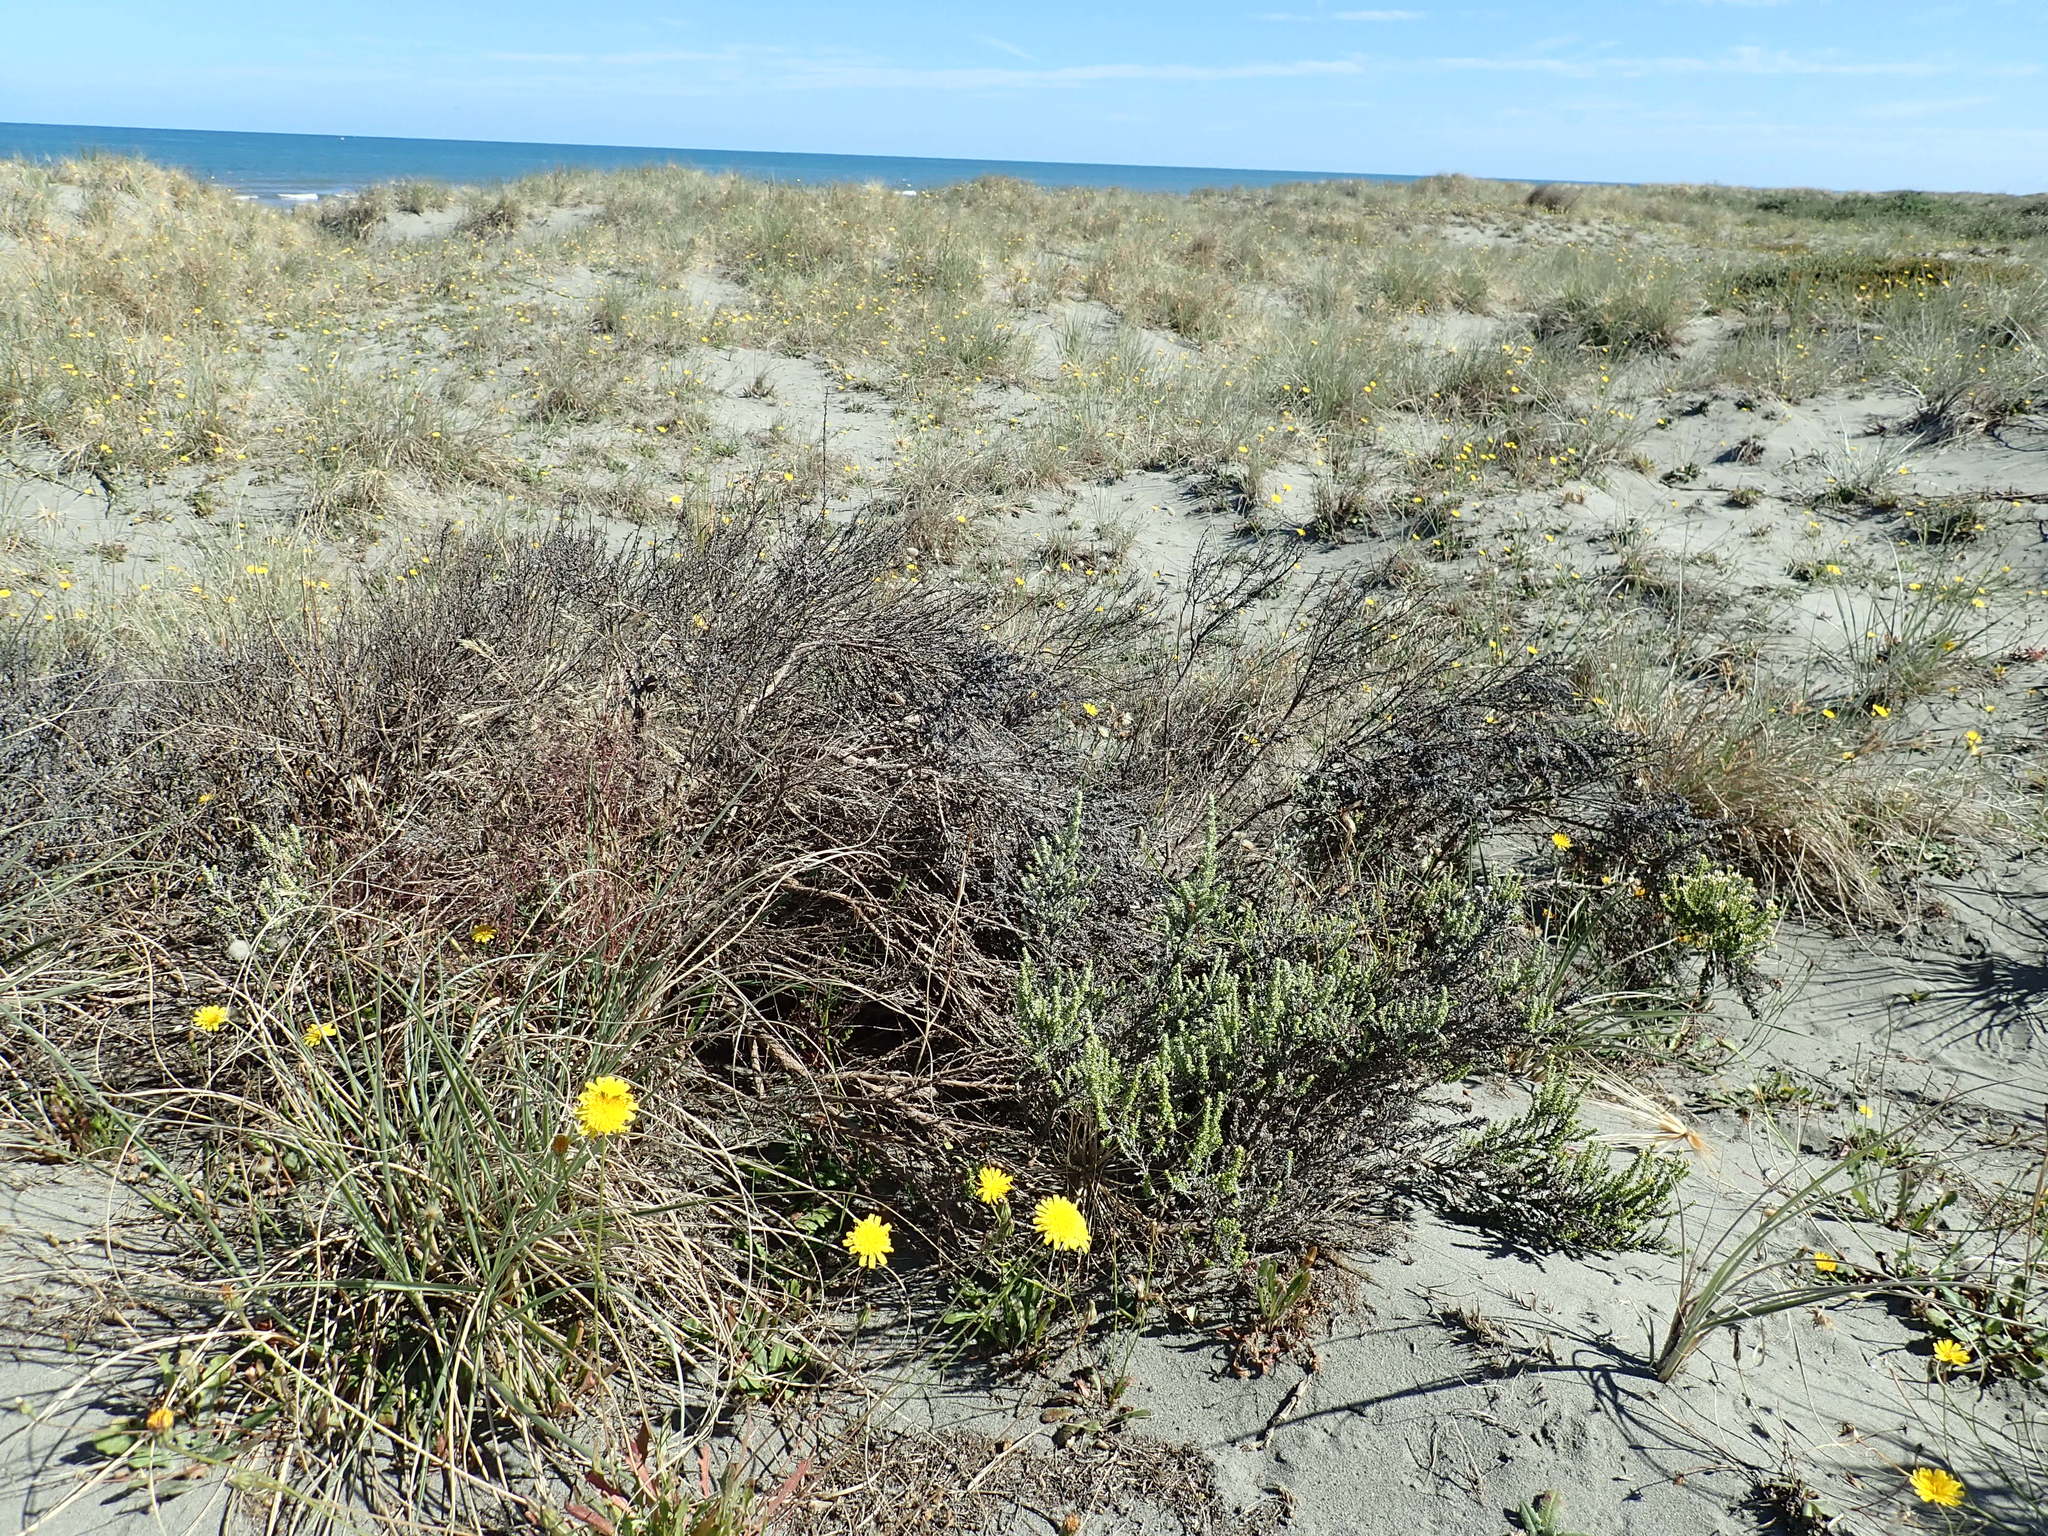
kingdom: Plantae
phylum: Tracheophyta
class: Magnoliopsida
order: Asterales
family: Asteraceae
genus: Ozothamnus
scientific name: Ozothamnus leptophyllus
